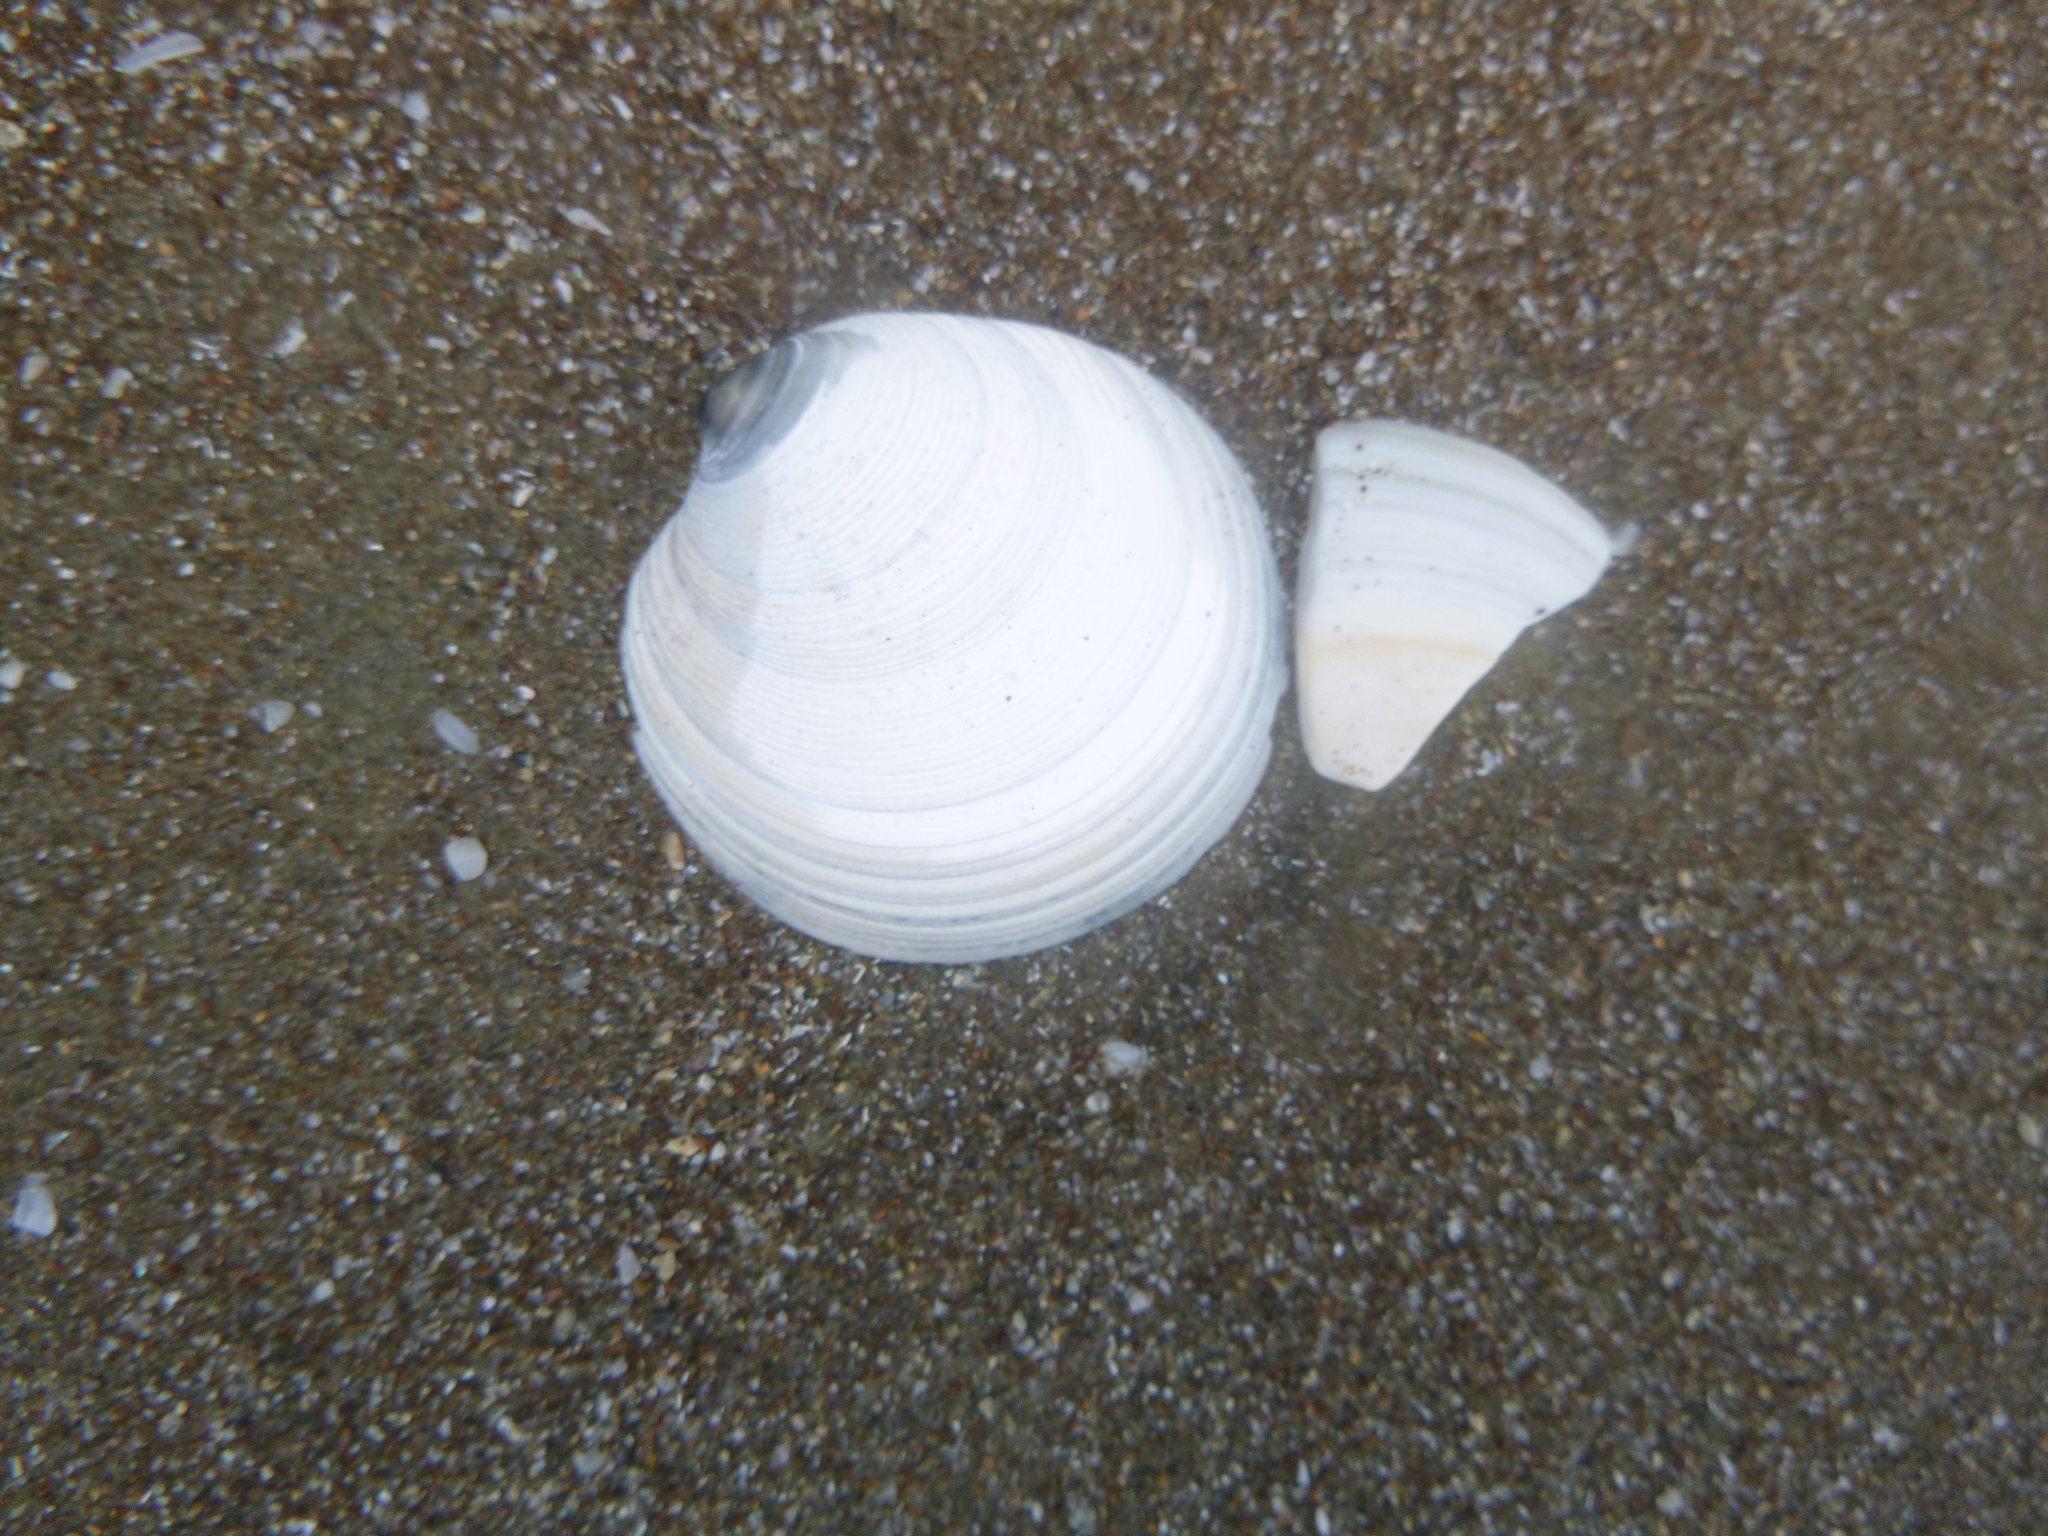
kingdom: Animalia
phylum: Mollusca
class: Bivalvia
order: Venerida
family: Veneridae
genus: Dosinia
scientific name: Dosinia subrosea
